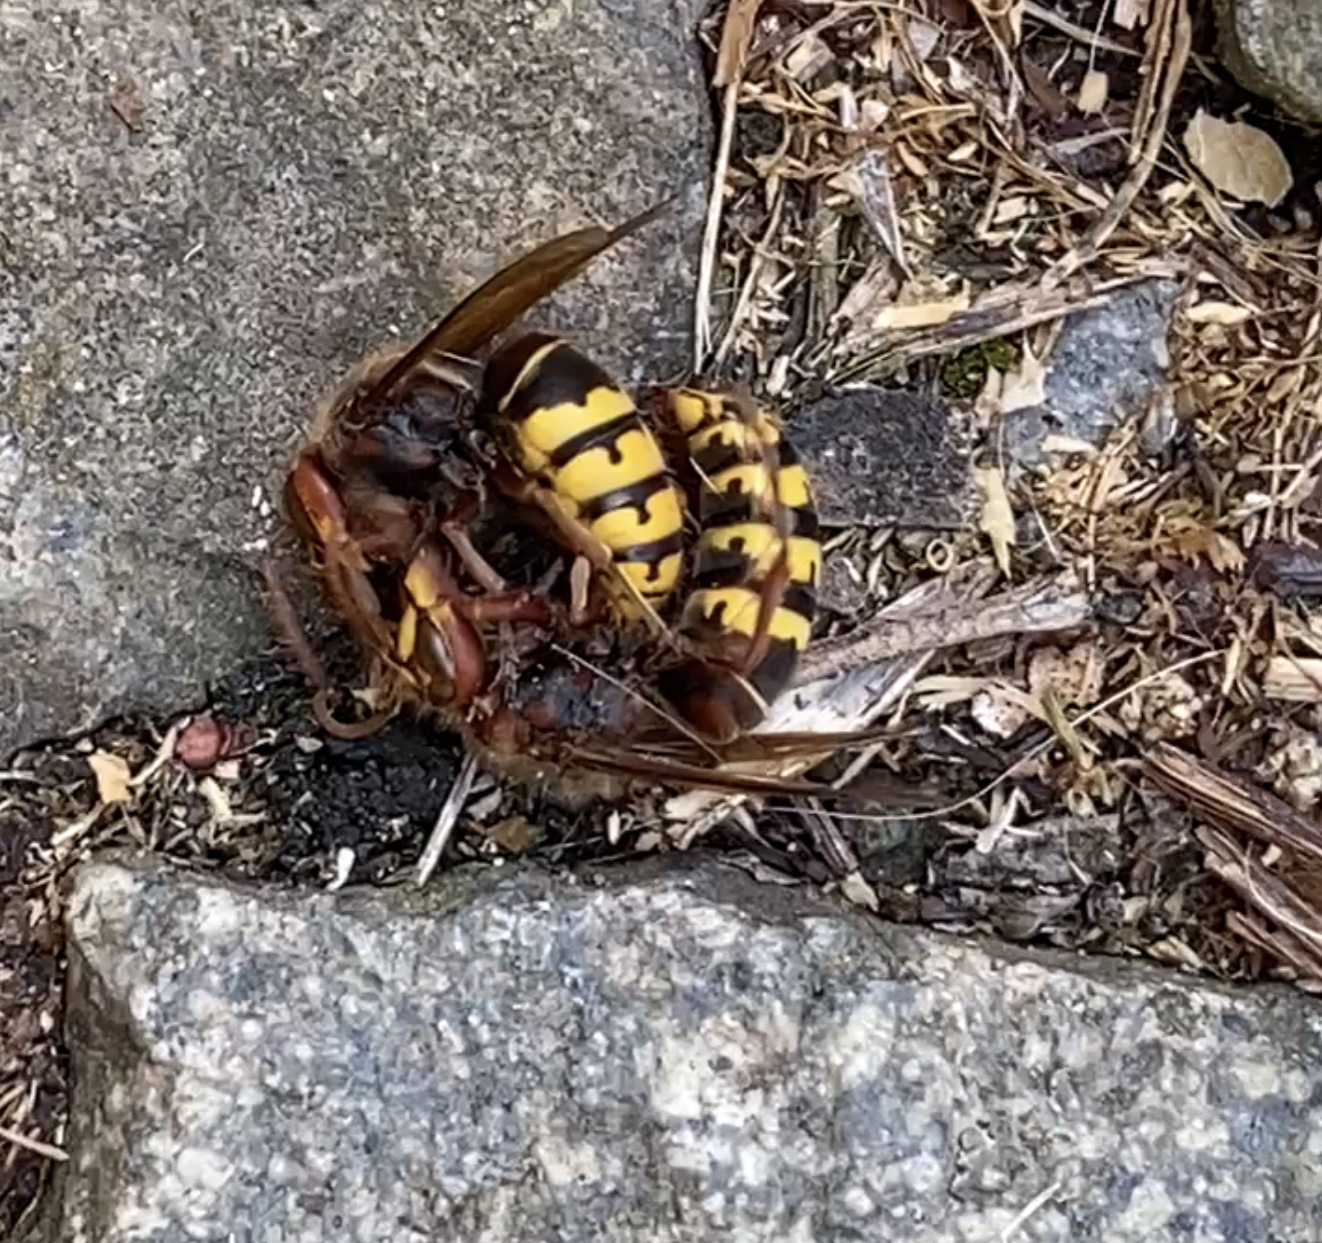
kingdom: Animalia
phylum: Arthropoda
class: Insecta
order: Hymenoptera
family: Vespidae
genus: Vespa
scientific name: Vespa crabro
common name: Hornet
